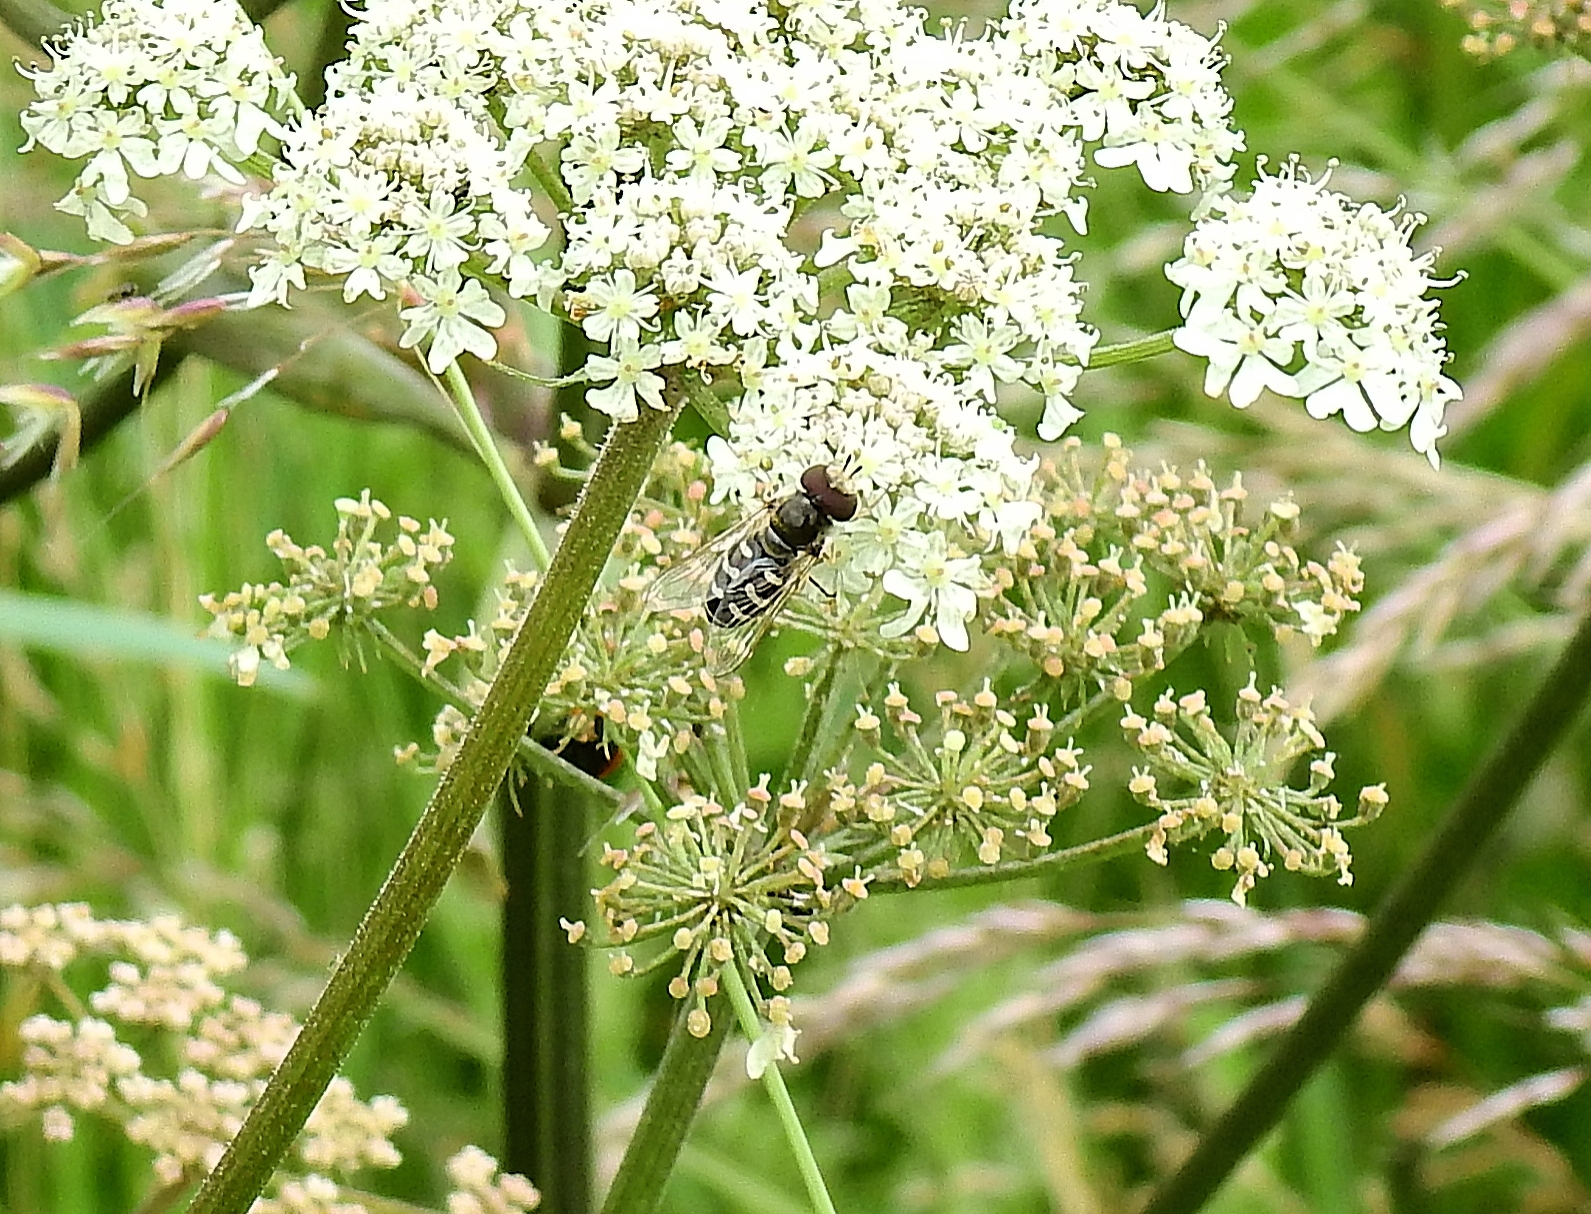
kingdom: Animalia
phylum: Arthropoda
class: Insecta
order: Diptera
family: Syrphidae
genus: Scaeva
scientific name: Scaeva pyrastri
